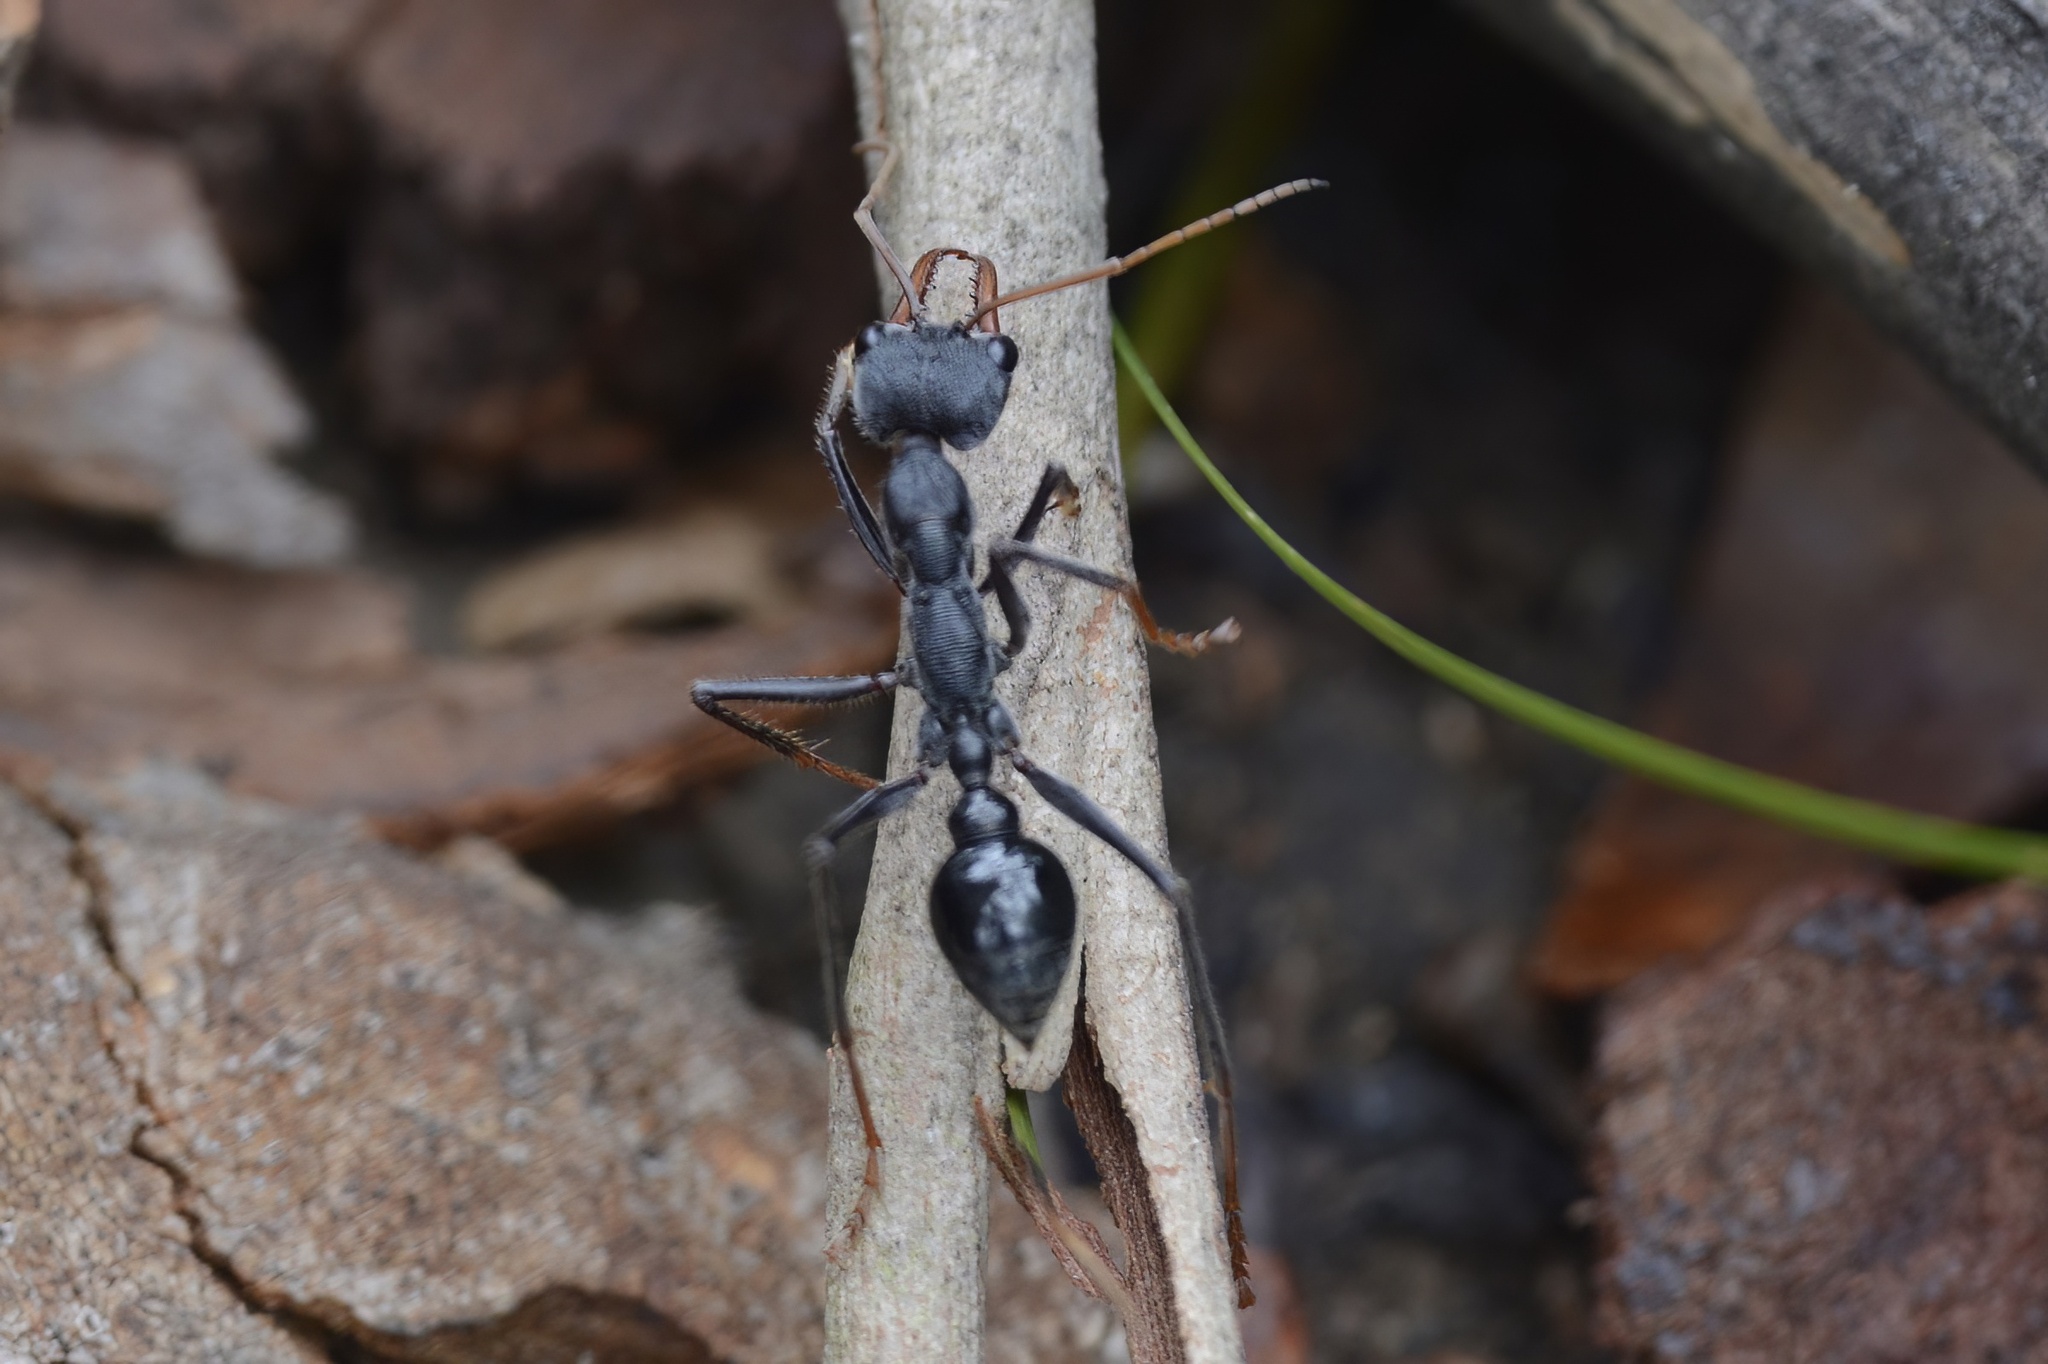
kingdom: Animalia
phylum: Arthropoda
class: Insecta
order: Hymenoptera
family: Formicidae
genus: Myrmecia
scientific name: Myrmecia simillima
